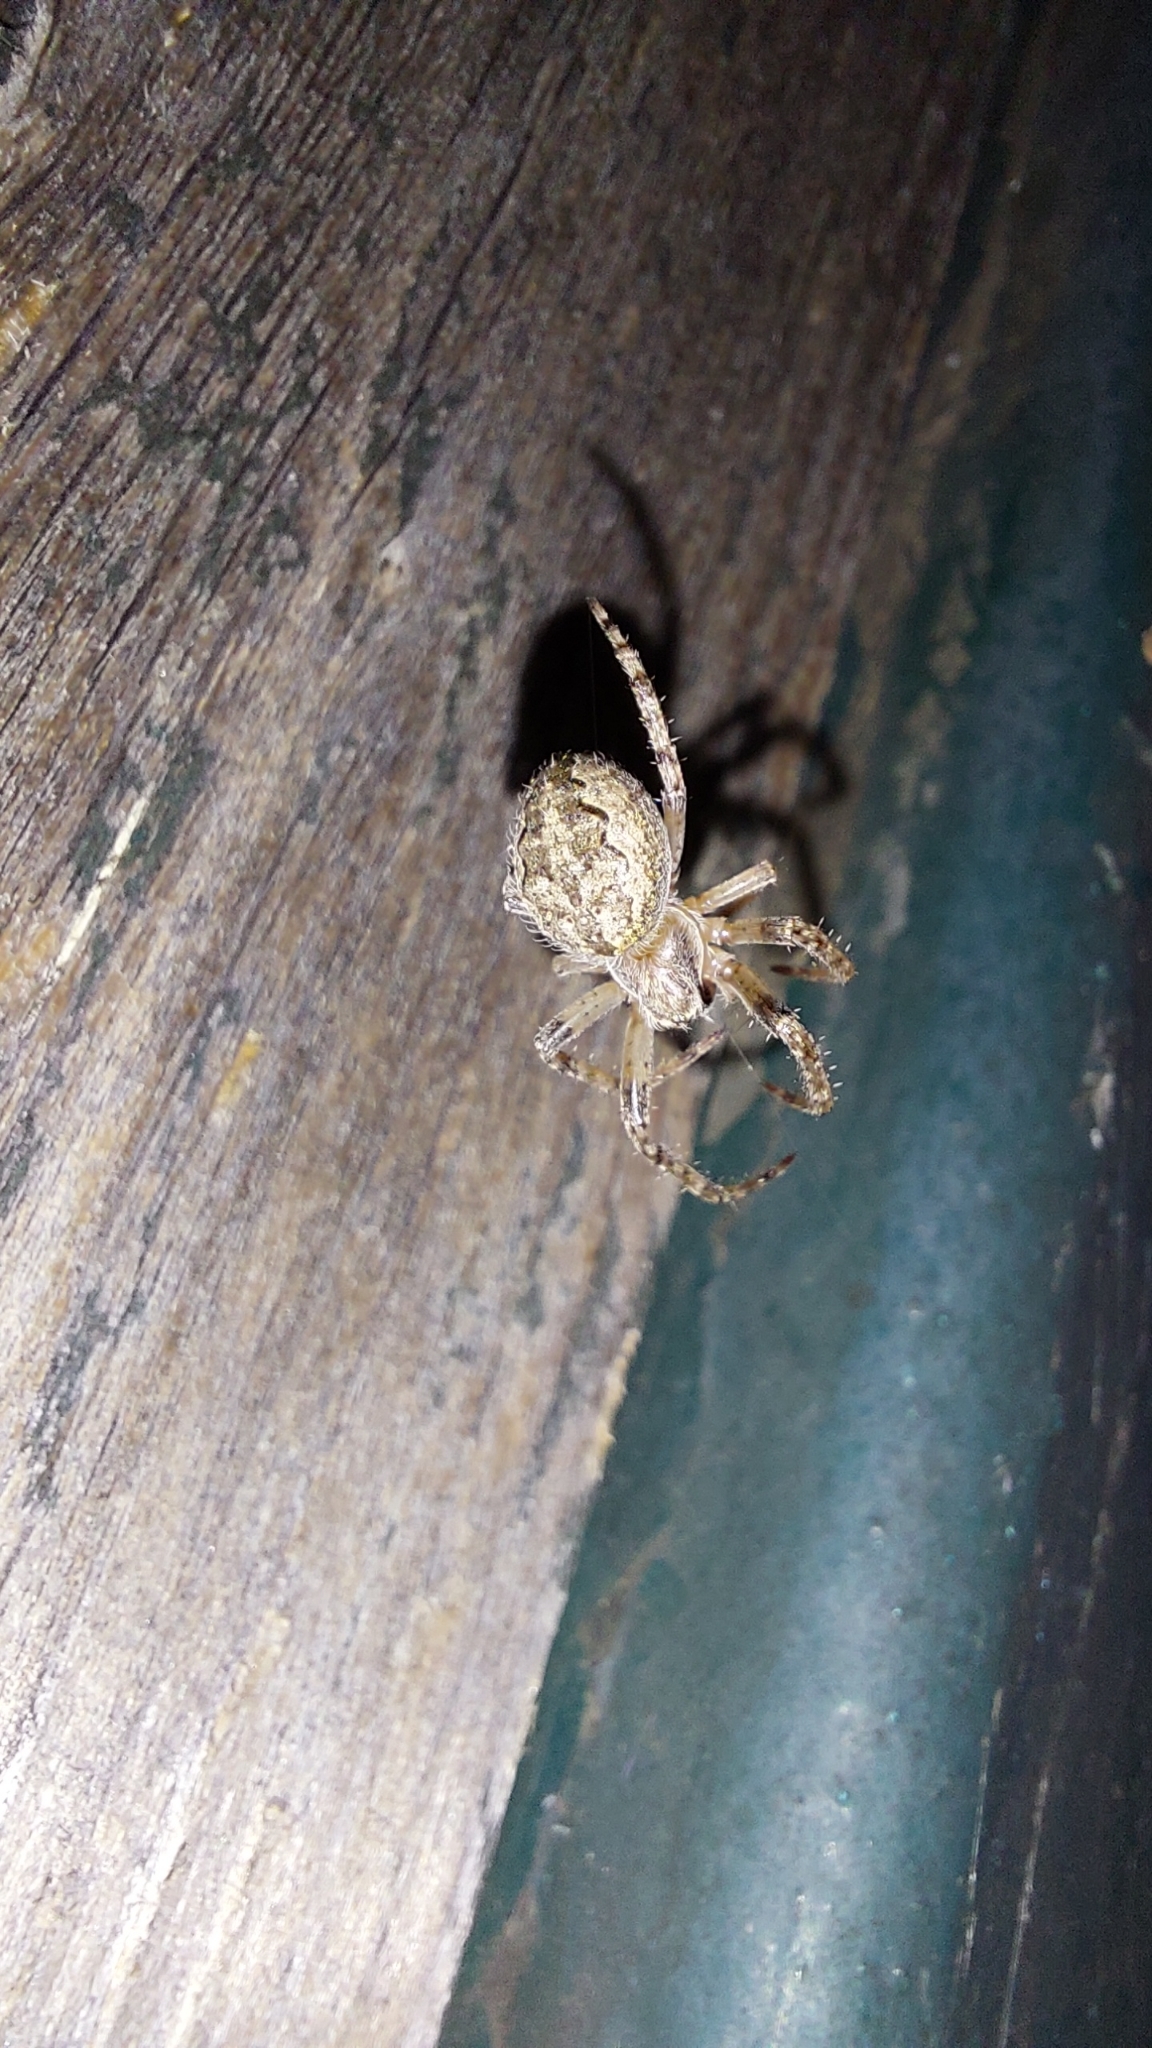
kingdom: Animalia
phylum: Arthropoda
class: Arachnida
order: Araneae
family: Araneidae
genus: Larinioides
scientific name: Larinioides ixobolus
